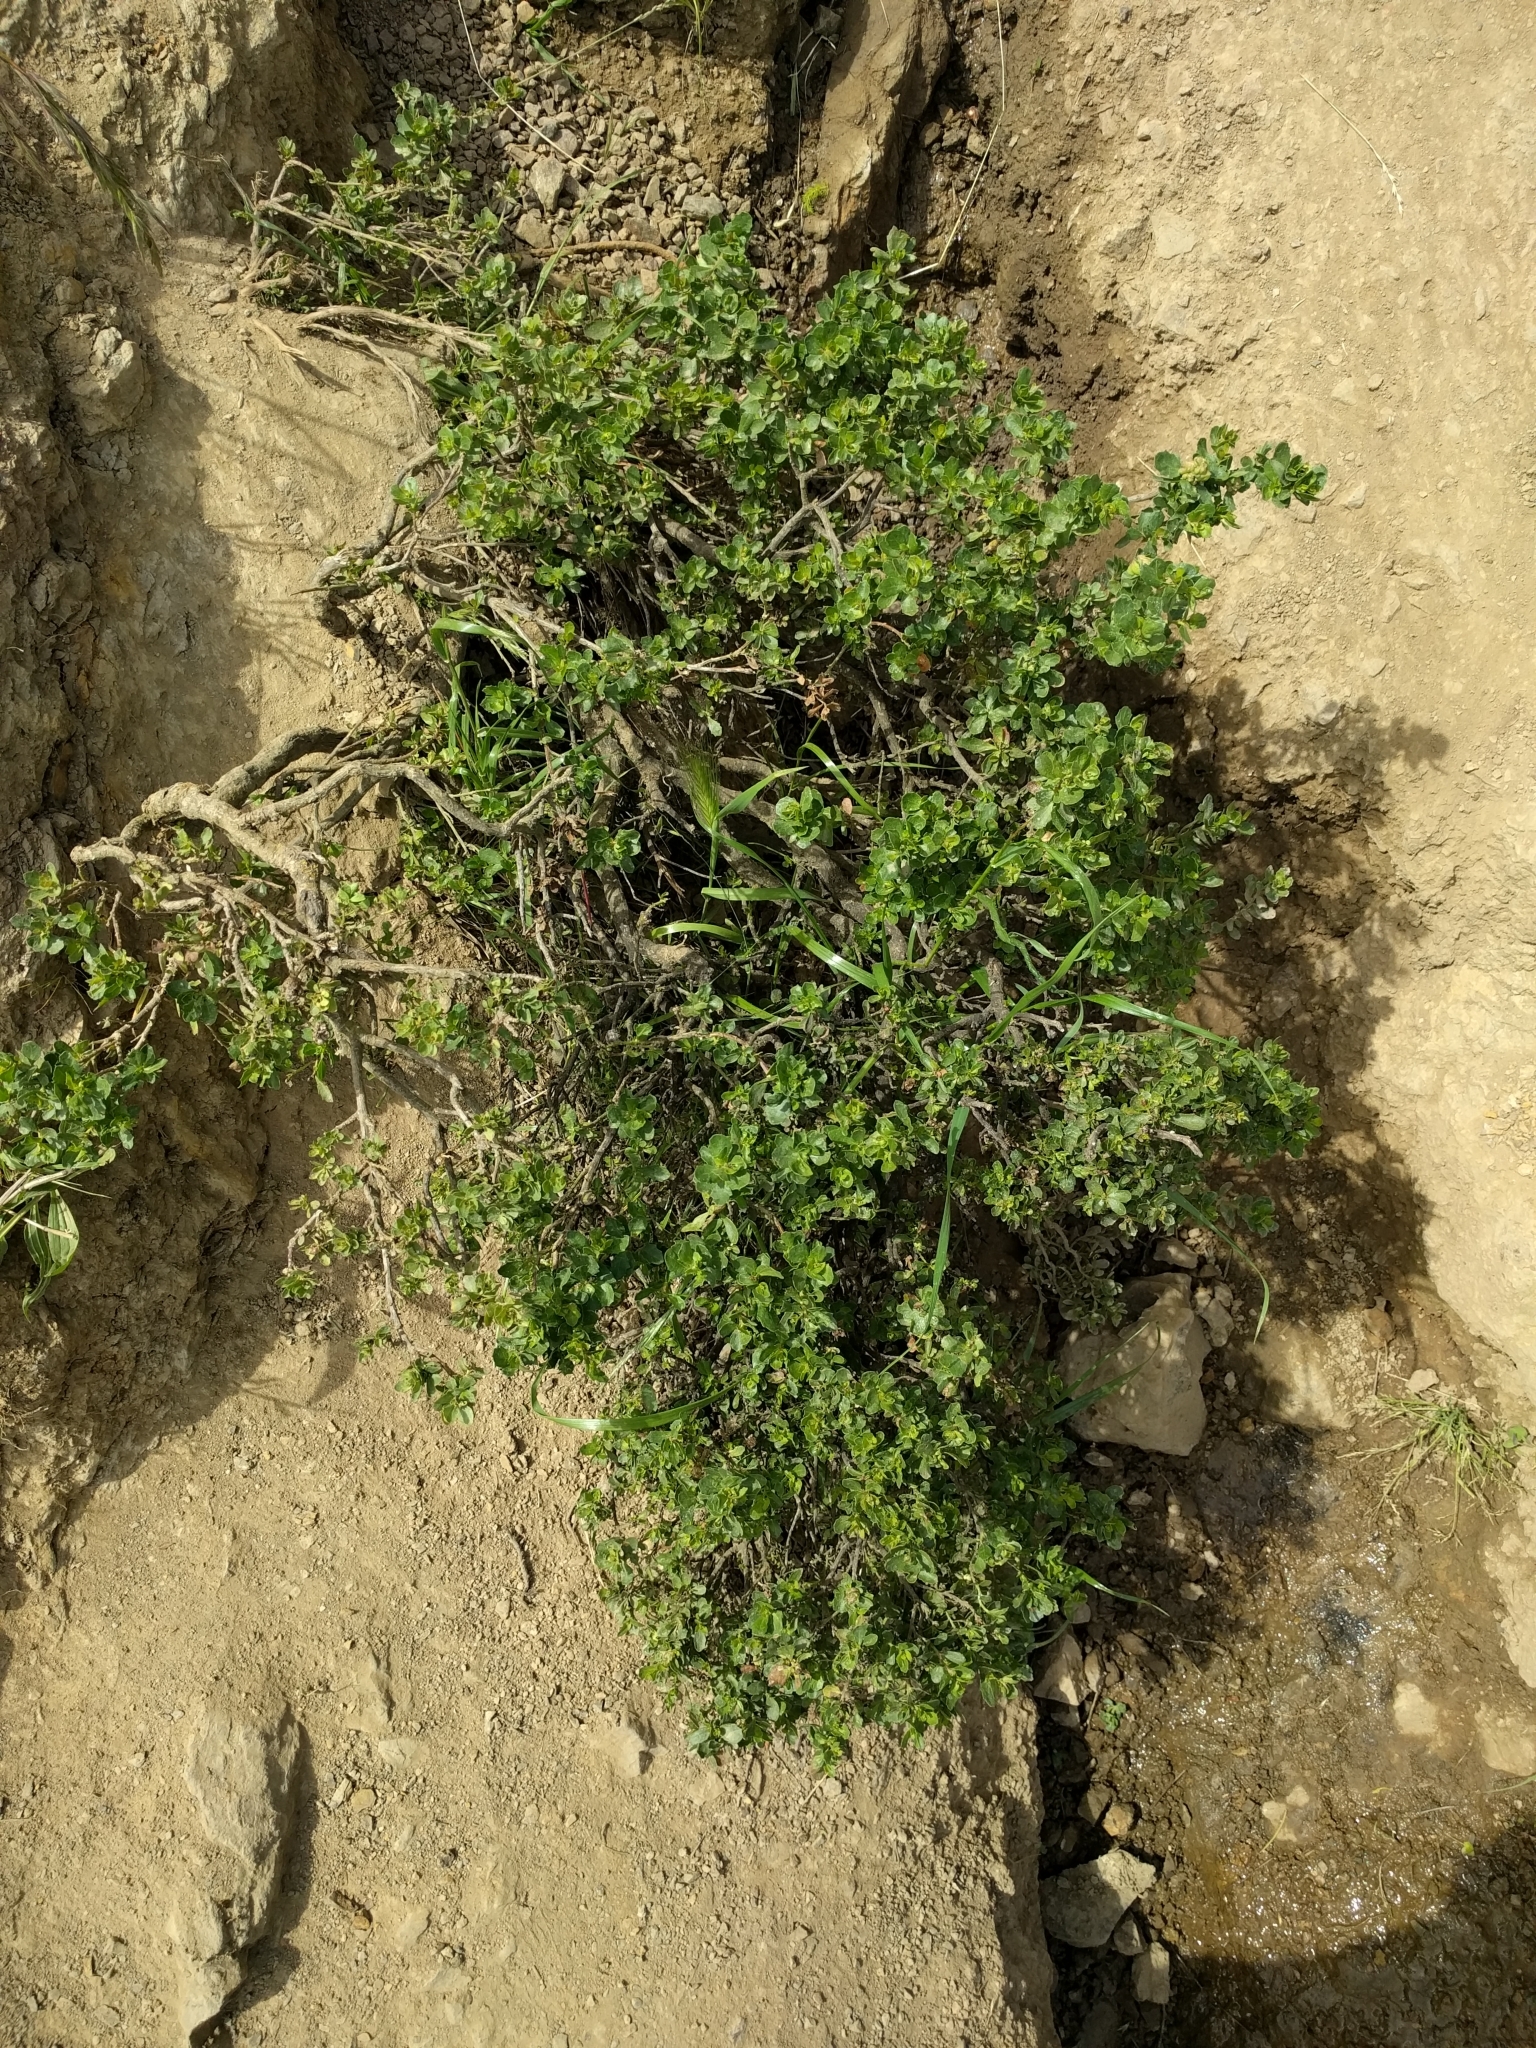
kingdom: Plantae
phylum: Tracheophyta
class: Magnoliopsida
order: Asterales
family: Asteraceae
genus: Baccharis
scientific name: Baccharis pilularis
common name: Coyotebrush
